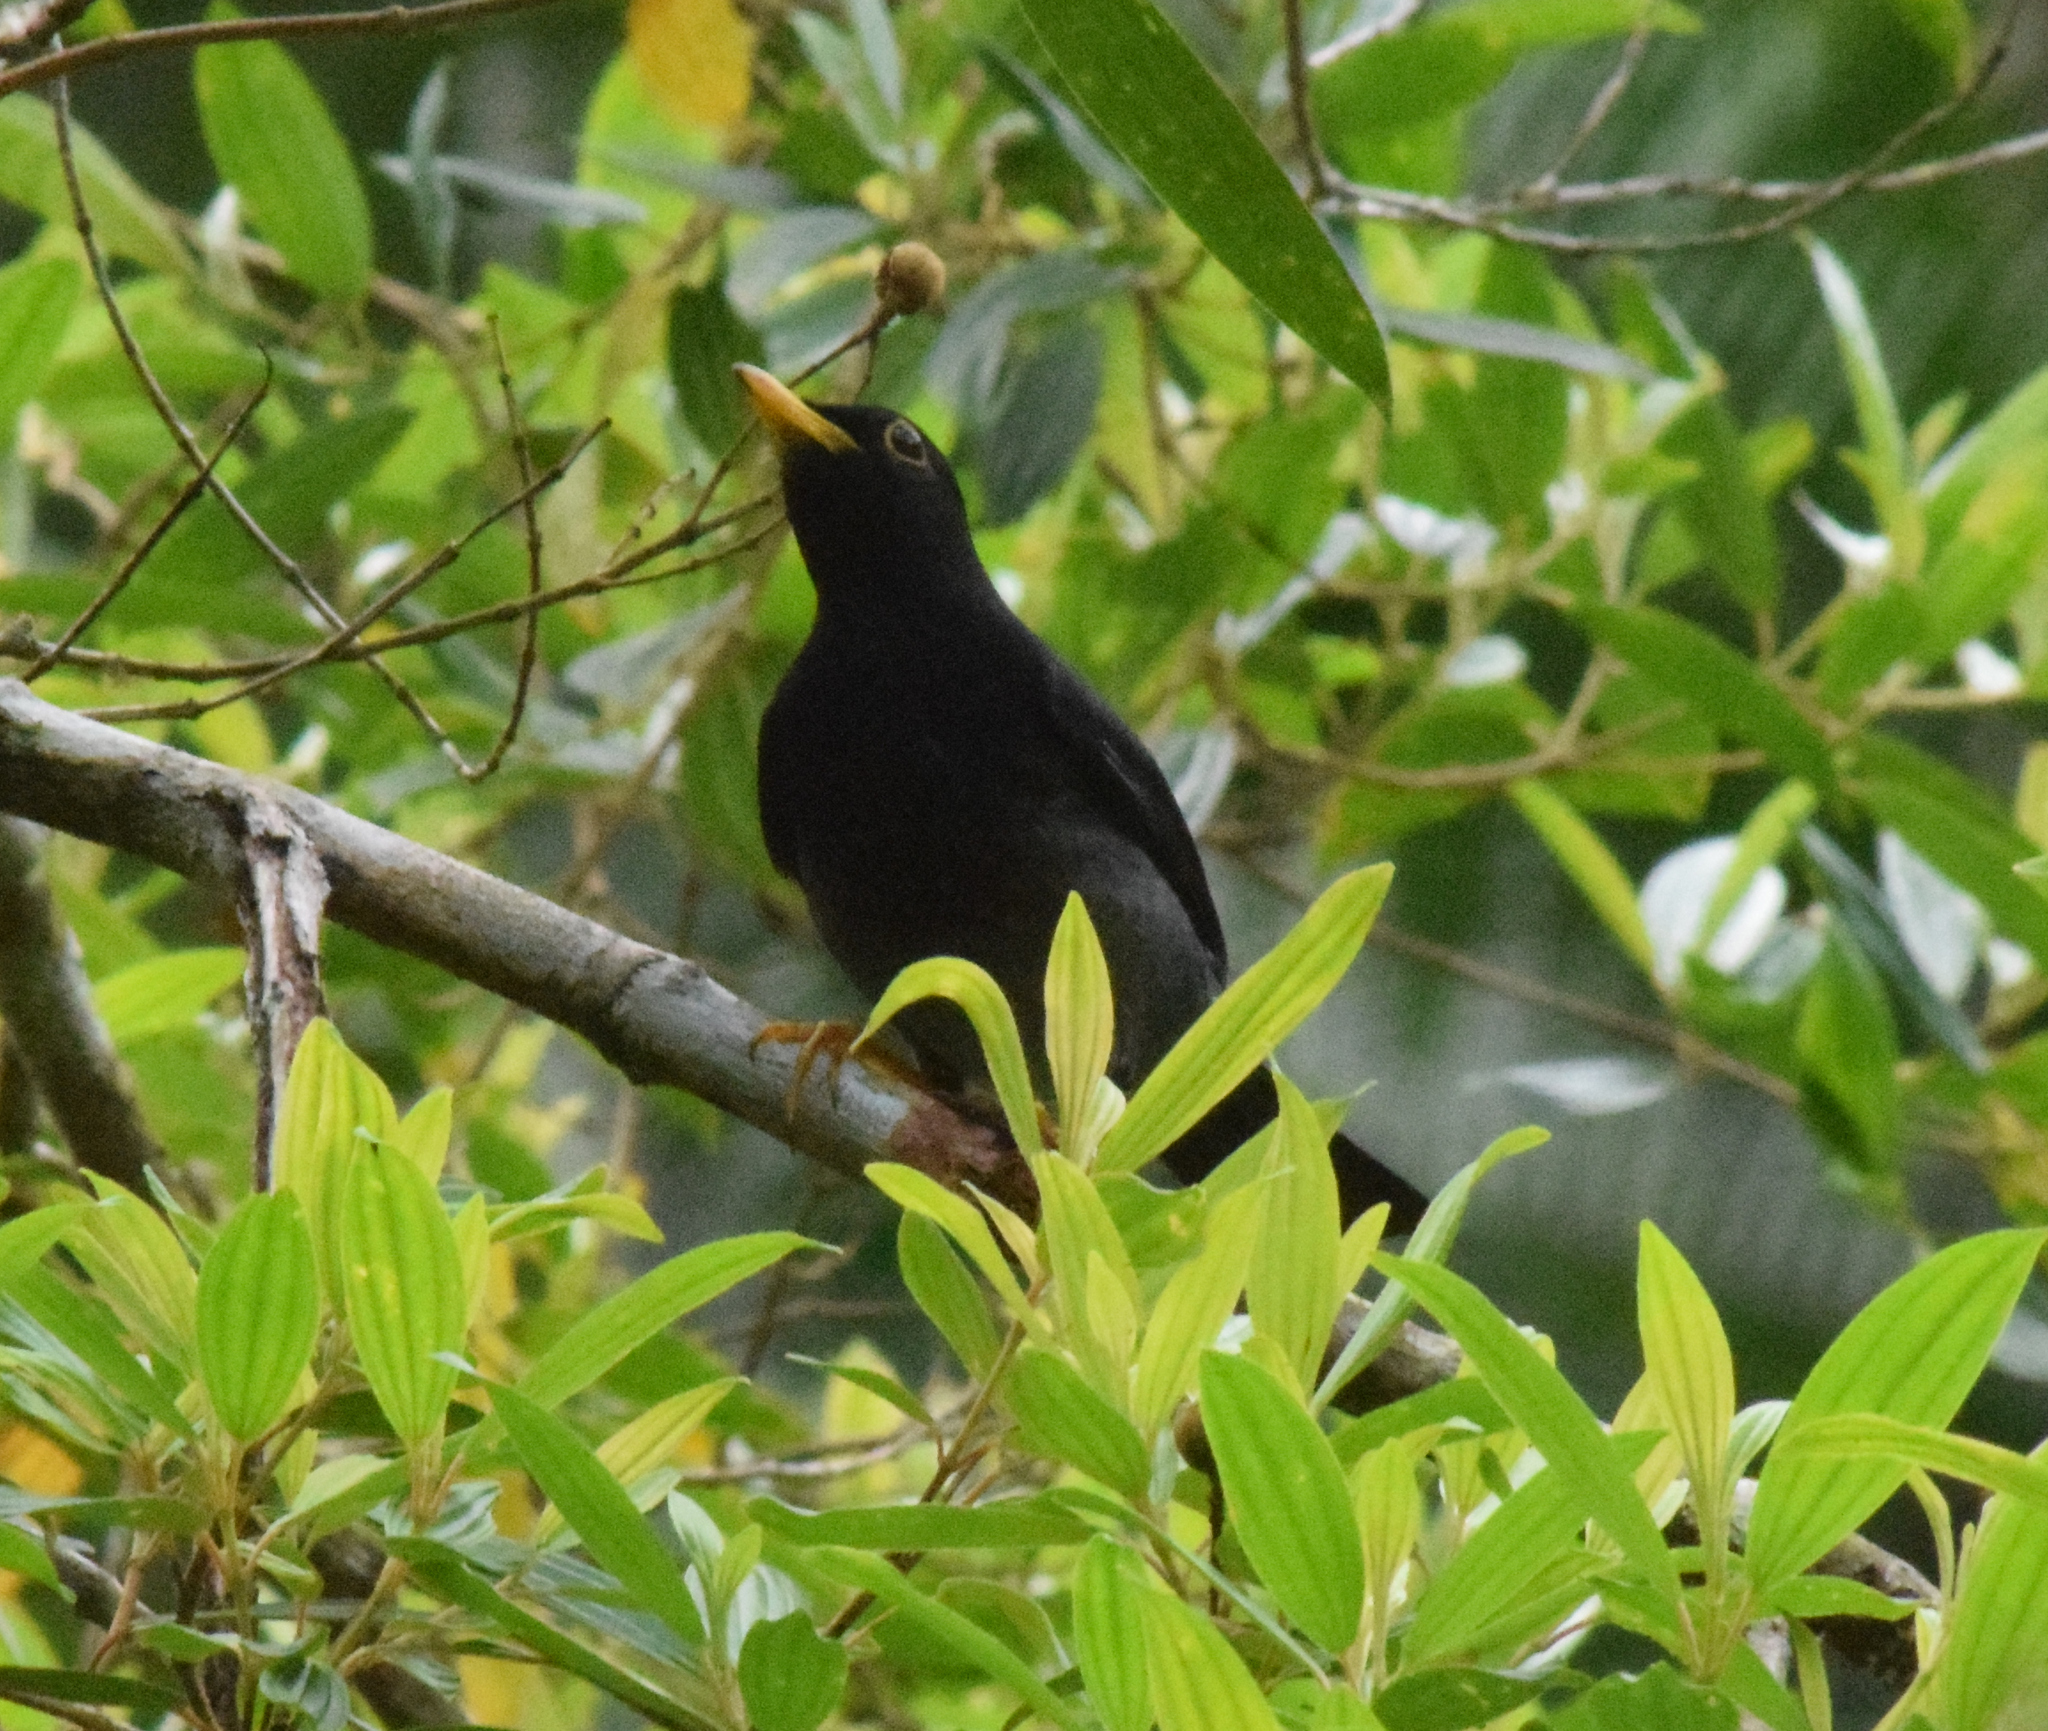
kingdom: Animalia
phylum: Chordata
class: Aves
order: Passeriformes
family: Turdidae
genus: Turdus
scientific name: Turdus flavipes
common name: Yellow-legged thrush
